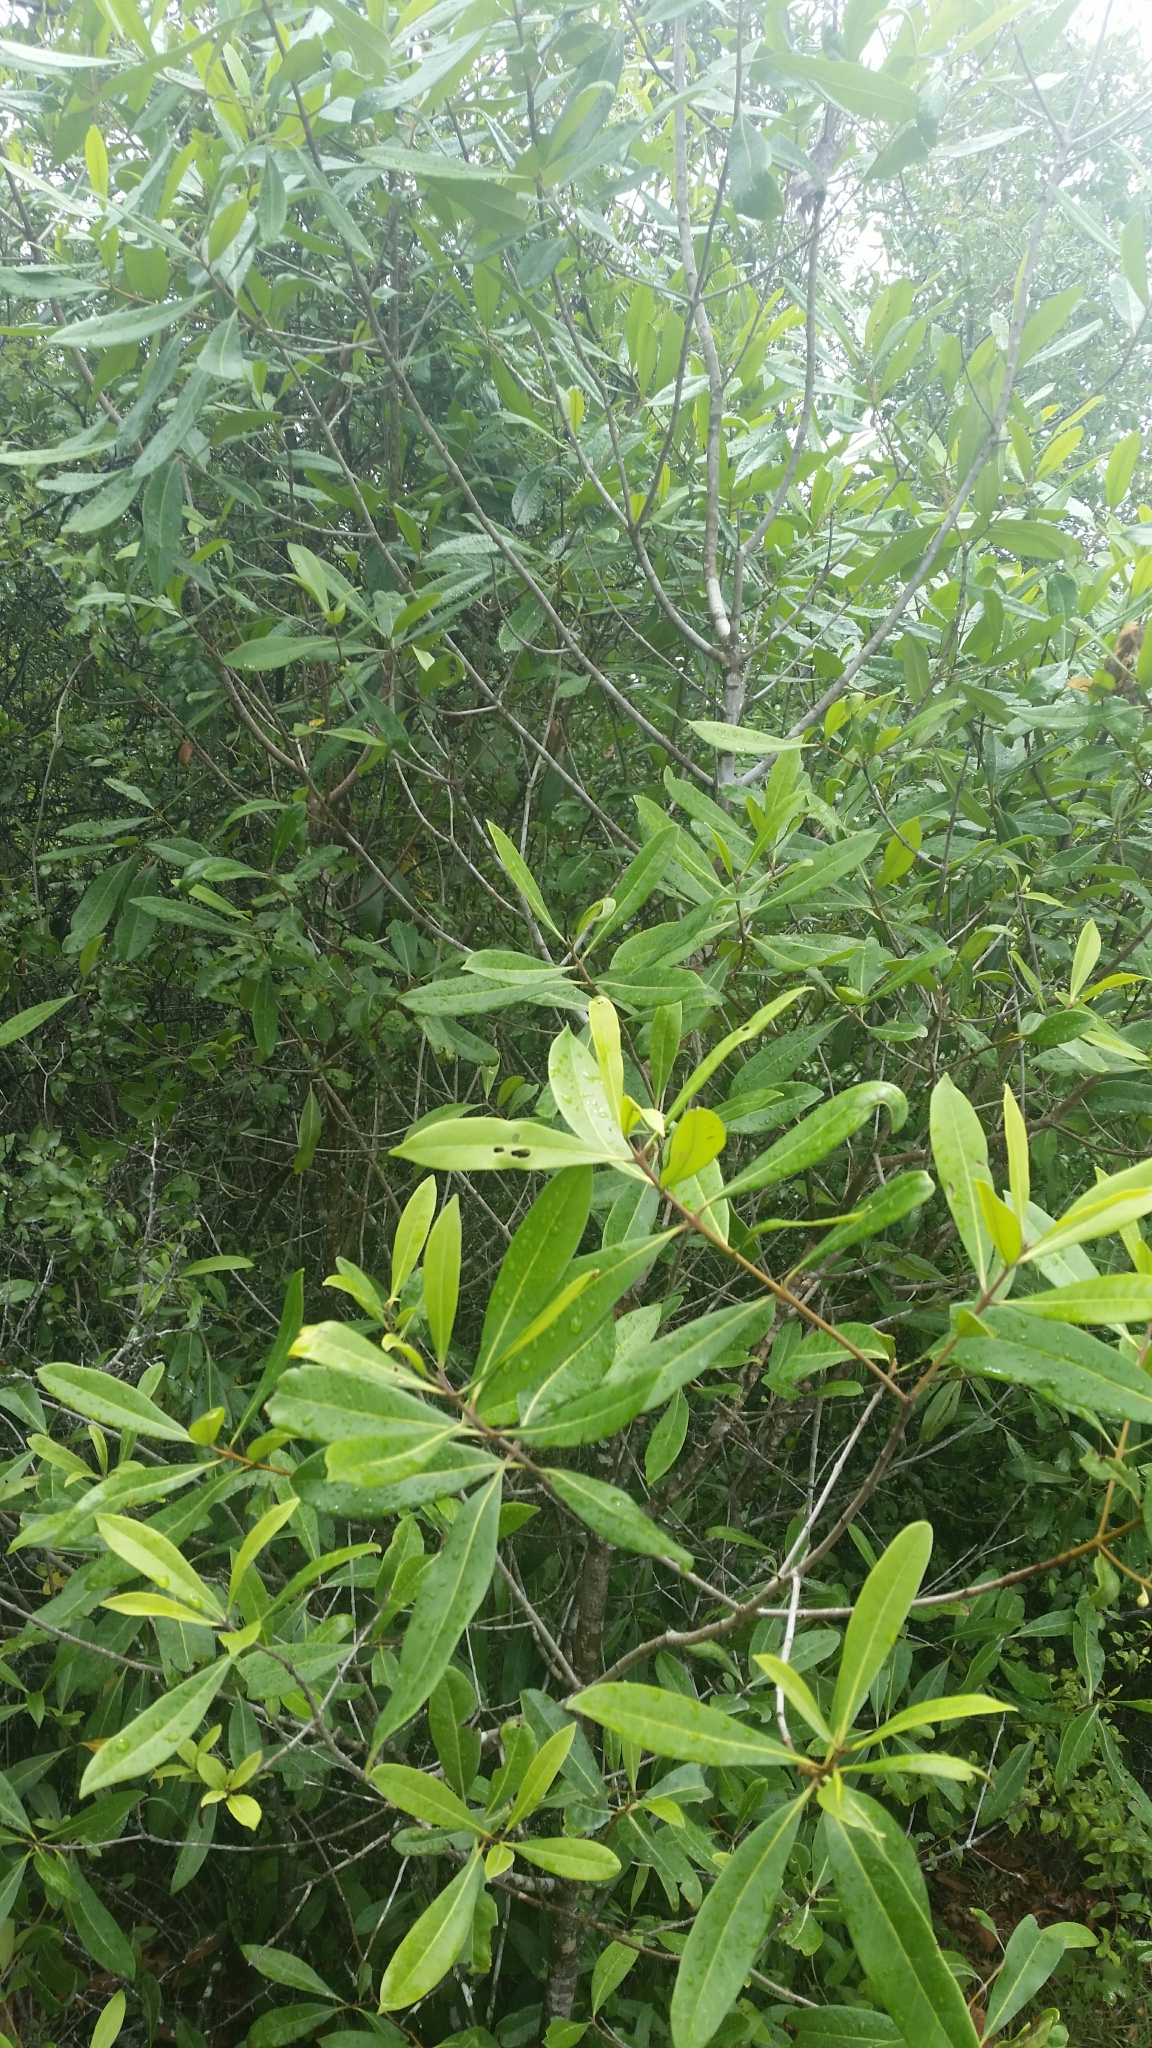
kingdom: Plantae
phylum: Tracheophyta
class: Magnoliopsida
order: Lamiales
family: Oleaceae
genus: Cartrema
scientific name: Cartrema americana
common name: Devilwood
